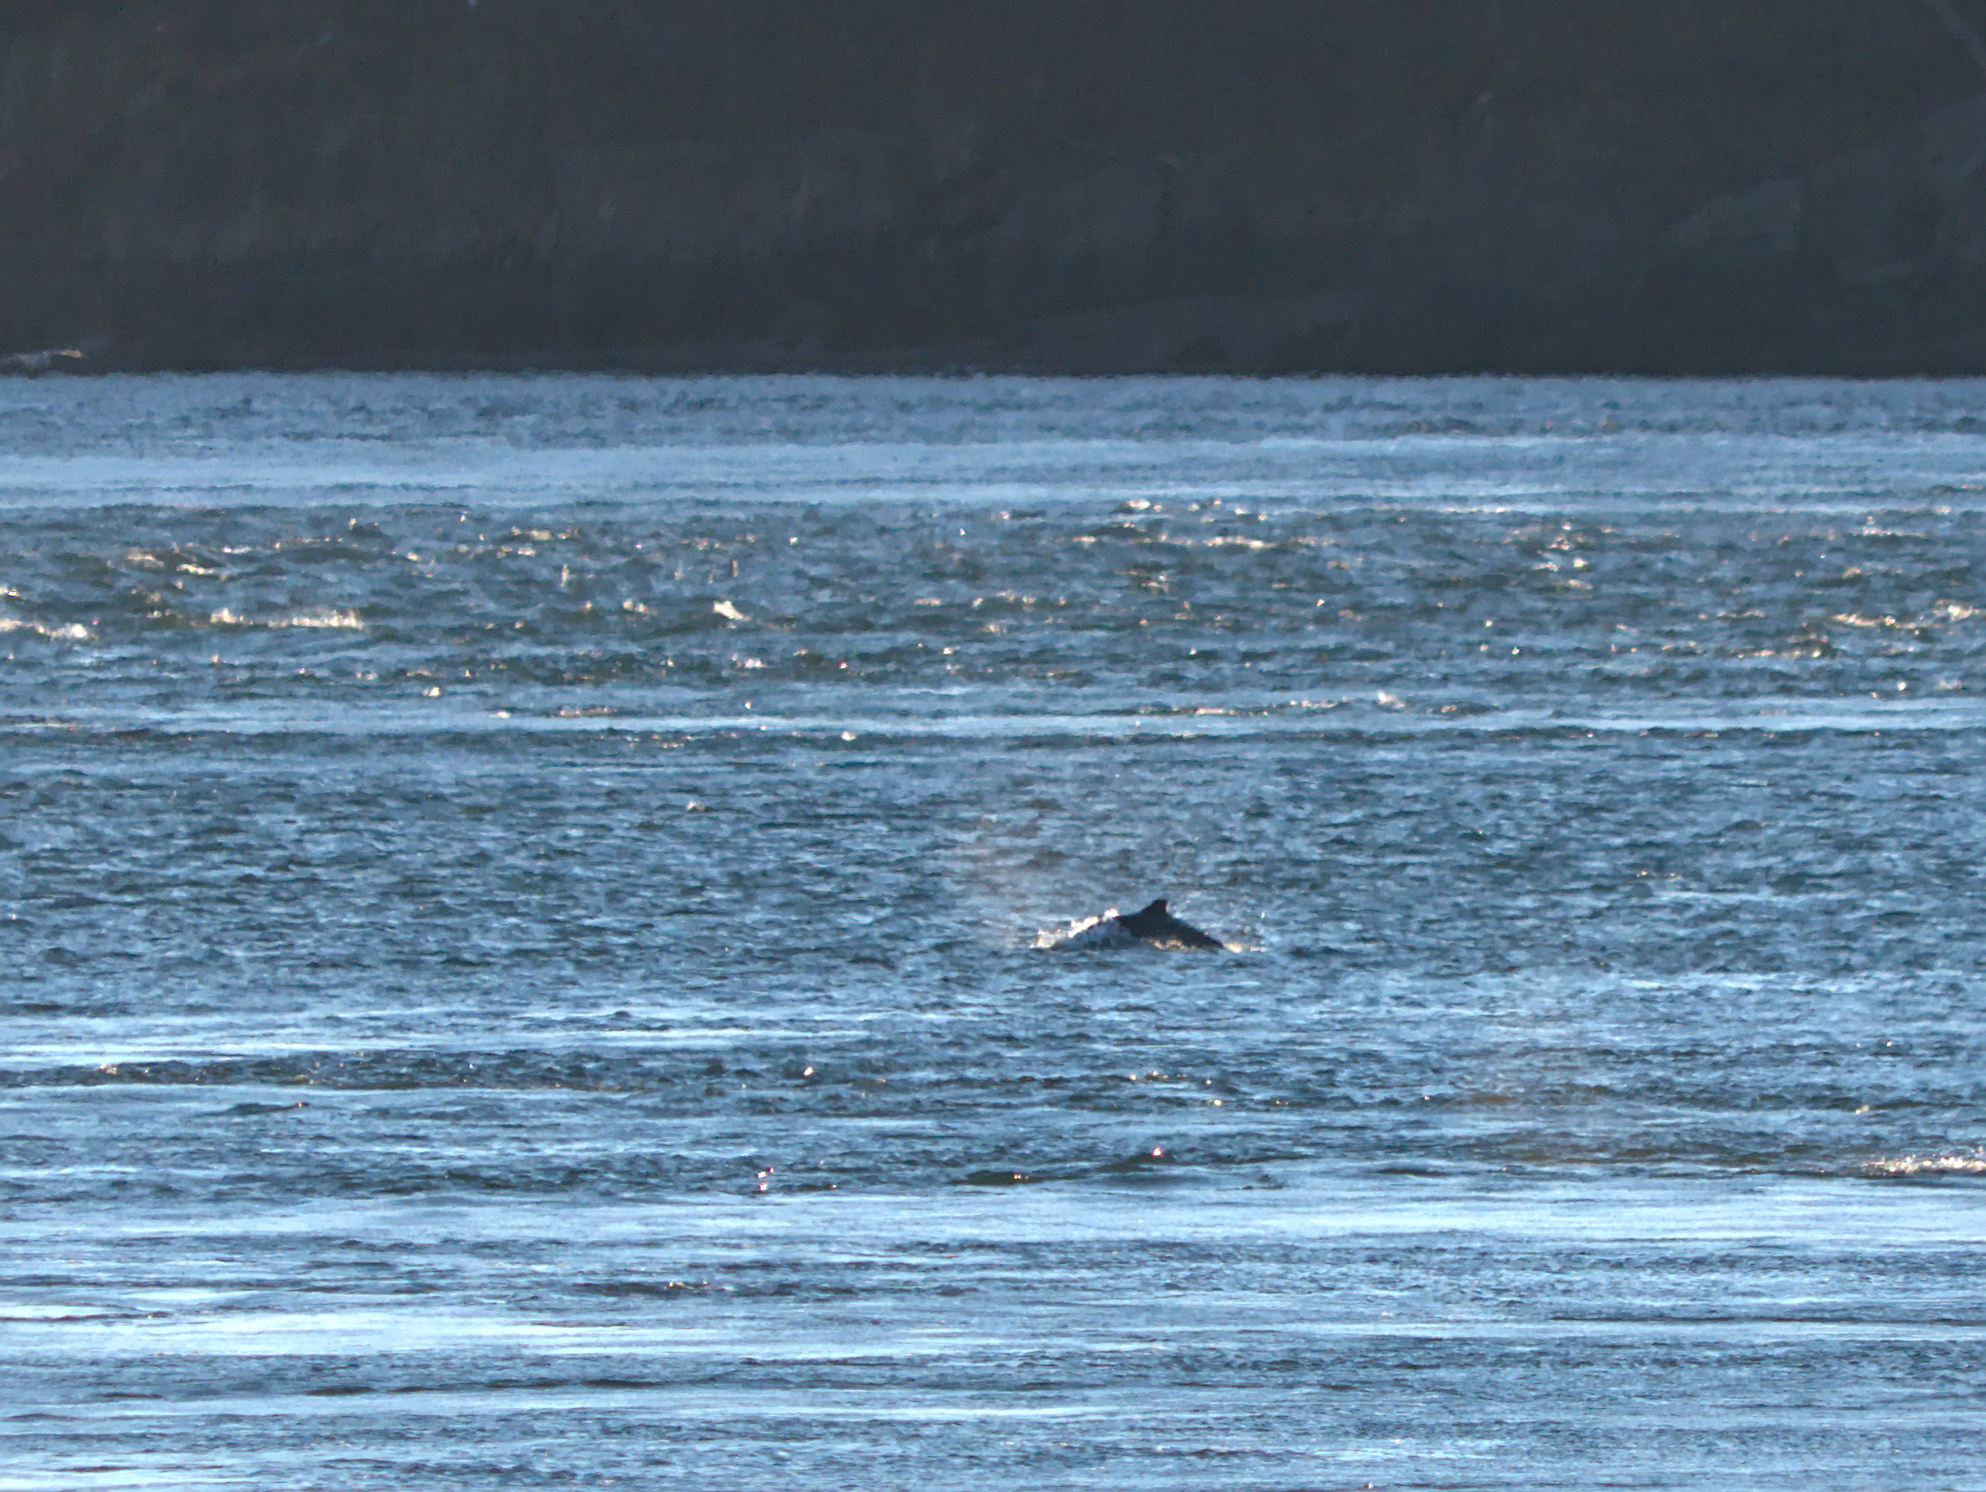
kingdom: Animalia
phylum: Chordata
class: Mammalia
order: Cetacea
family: Phocoenidae
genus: Phocoena
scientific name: Phocoena phocoena
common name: Harbor porpoise
